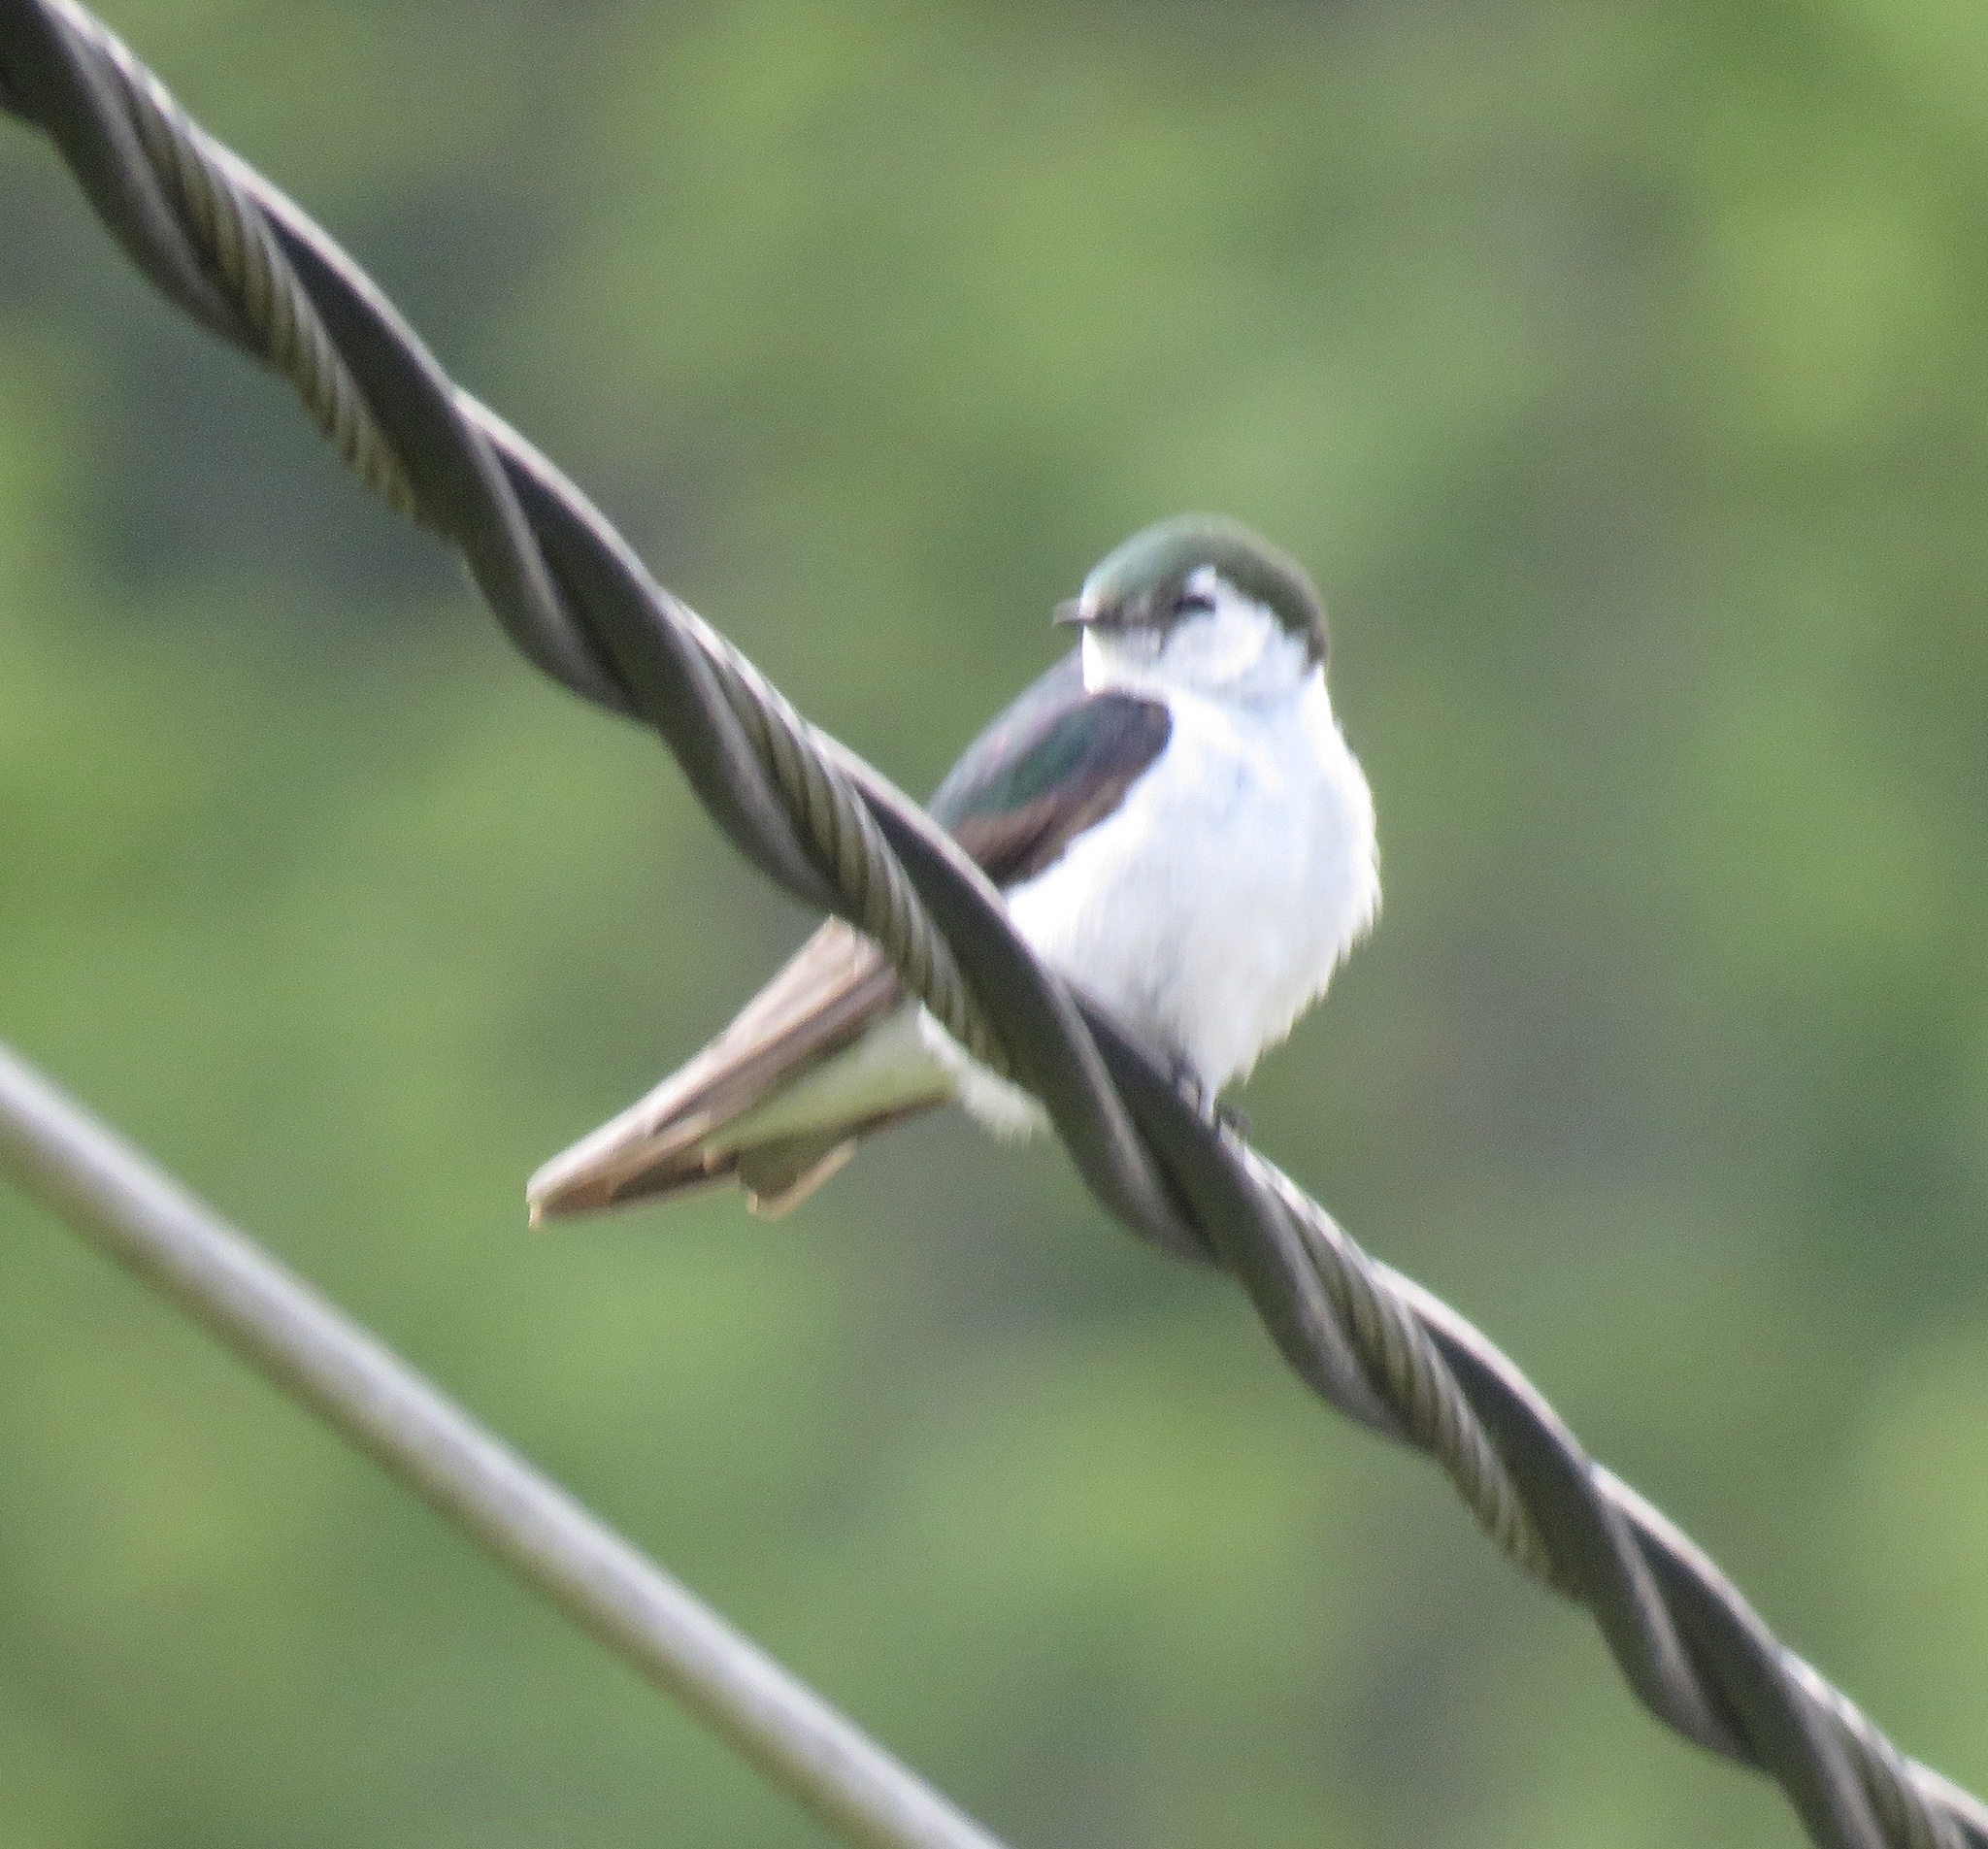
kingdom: Animalia
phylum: Chordata
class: Aves
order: Passeriformes
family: Hirundinidae
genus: Tachycineta
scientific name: Tachycineta thalassina
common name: Violet-green swallow
